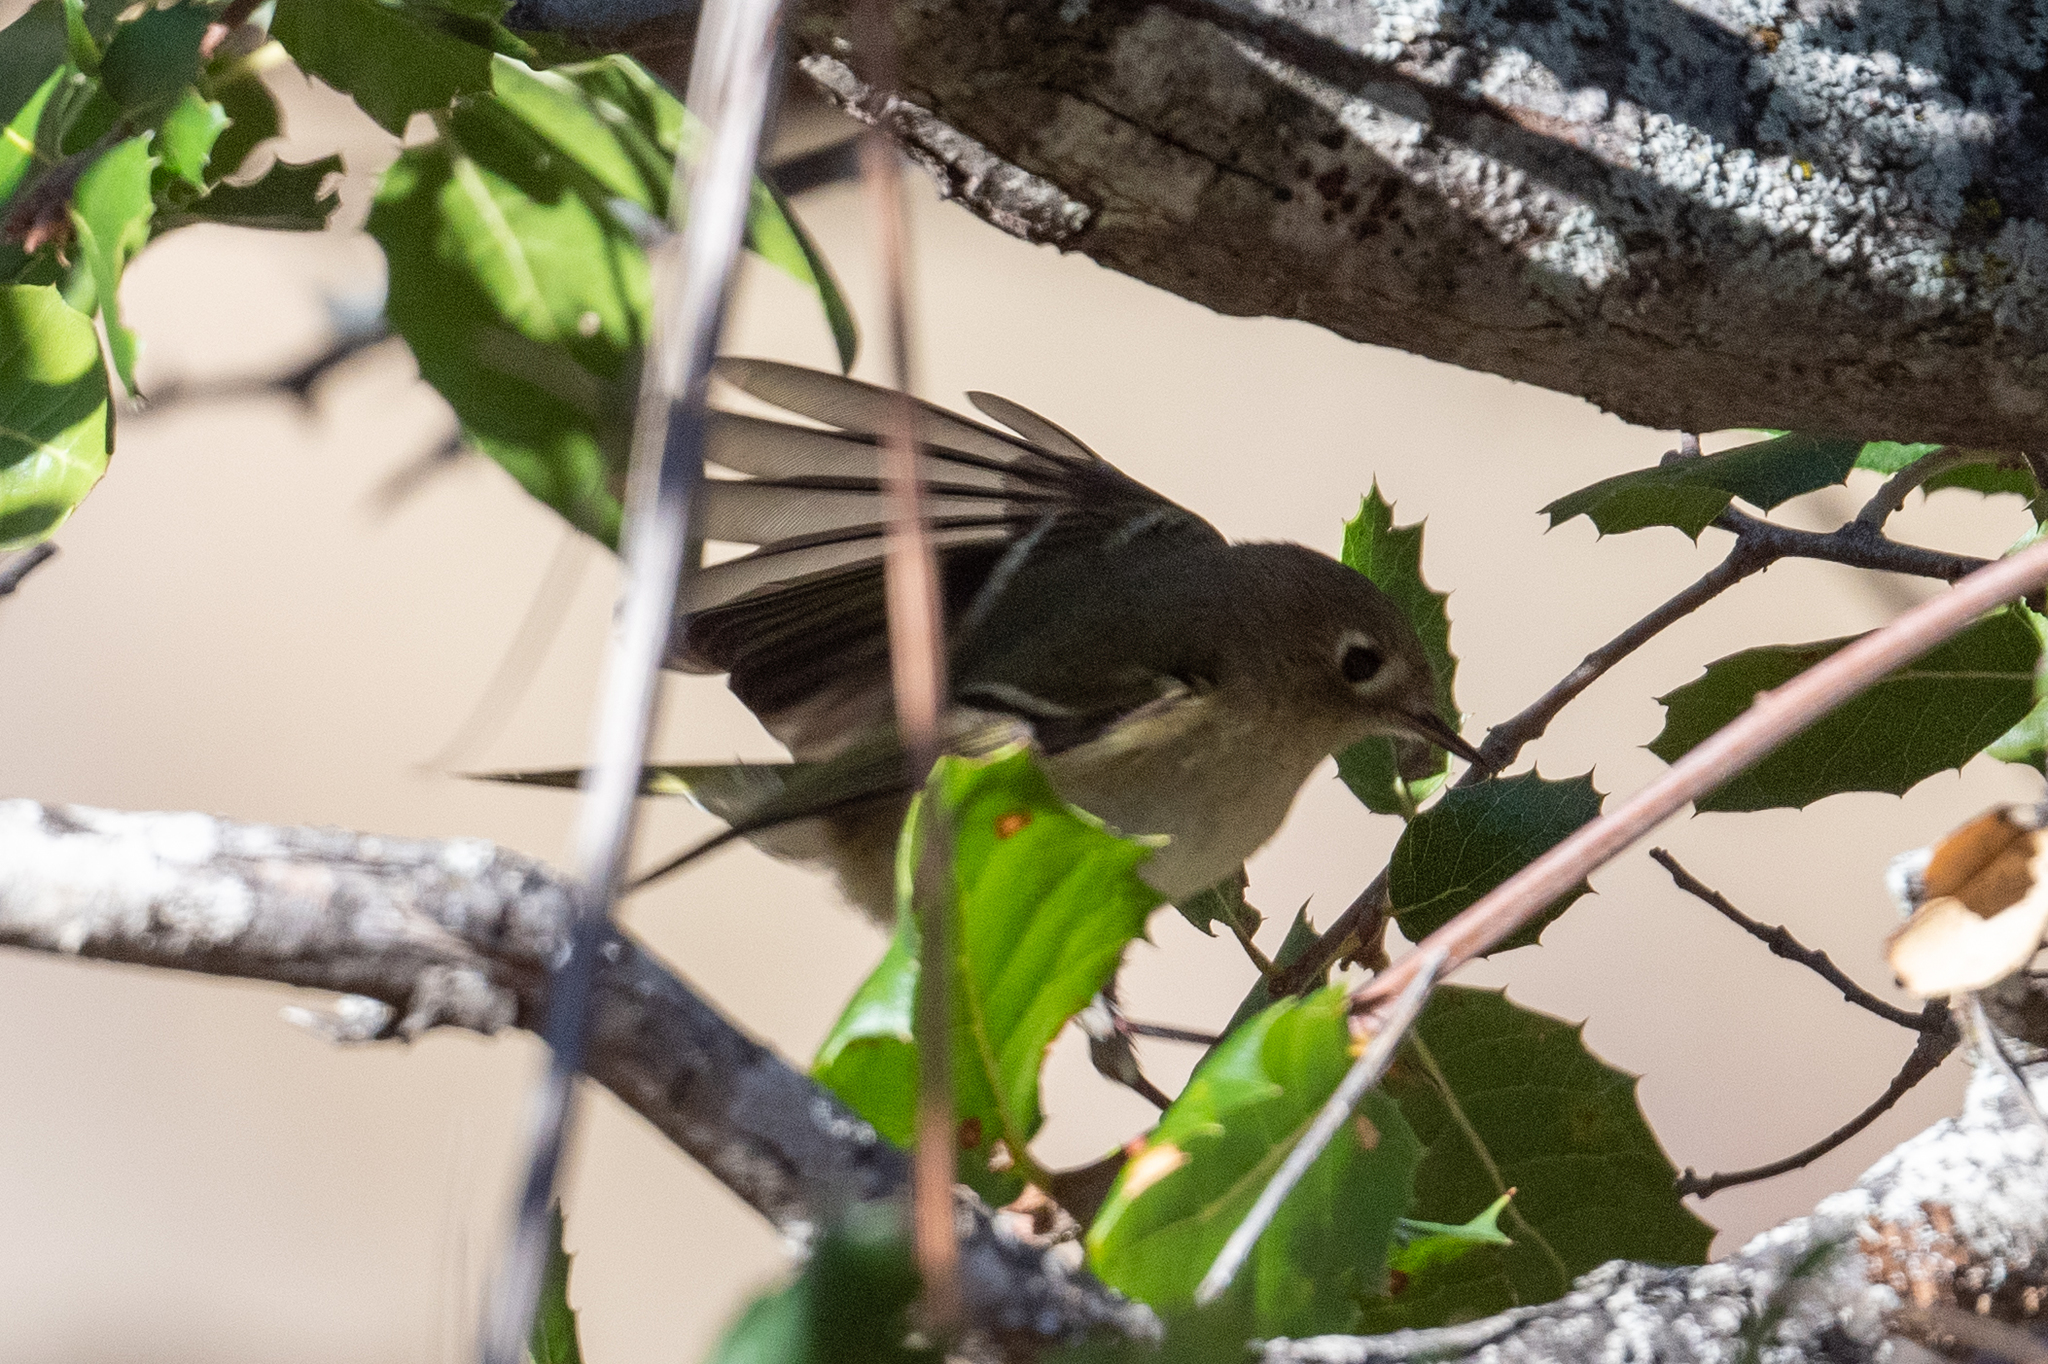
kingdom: Animalia
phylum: Chordata
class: Aves
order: Passeriformes
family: Regulidae
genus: Regulus
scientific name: Regulus calendula
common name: Ruby-crowned kinglet
